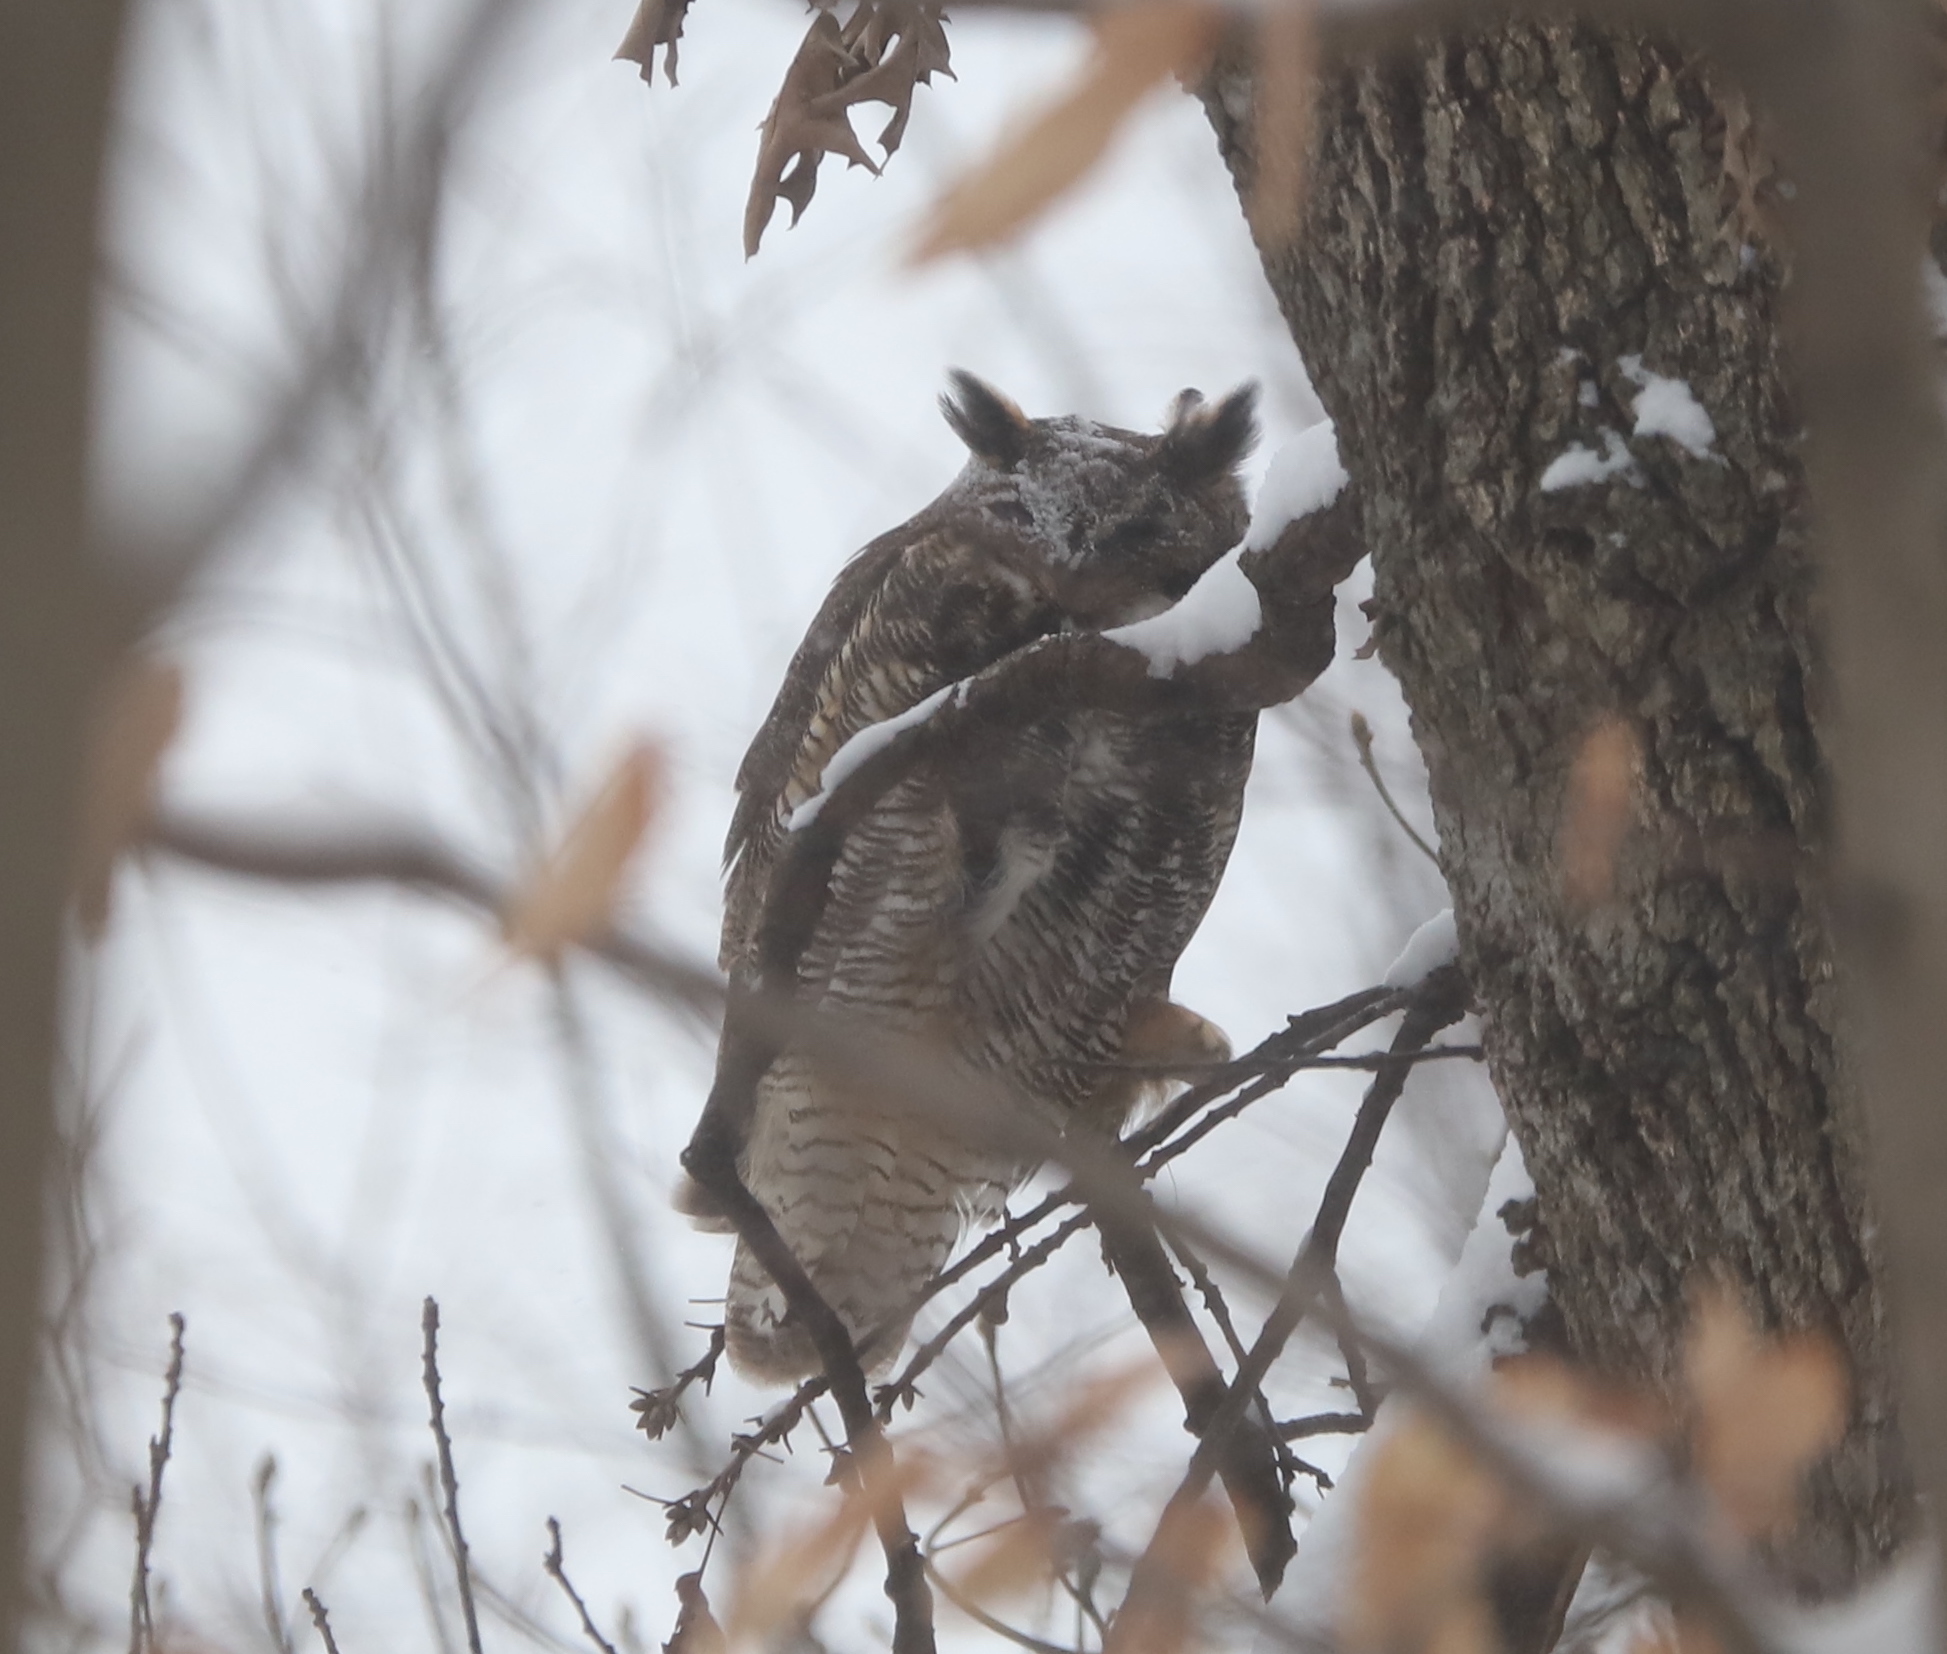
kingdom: Animalia
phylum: Chordata
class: Aves
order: Strigiformes
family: Strigidae
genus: Bubo
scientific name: Bubo virginianus
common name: Great horned owl
